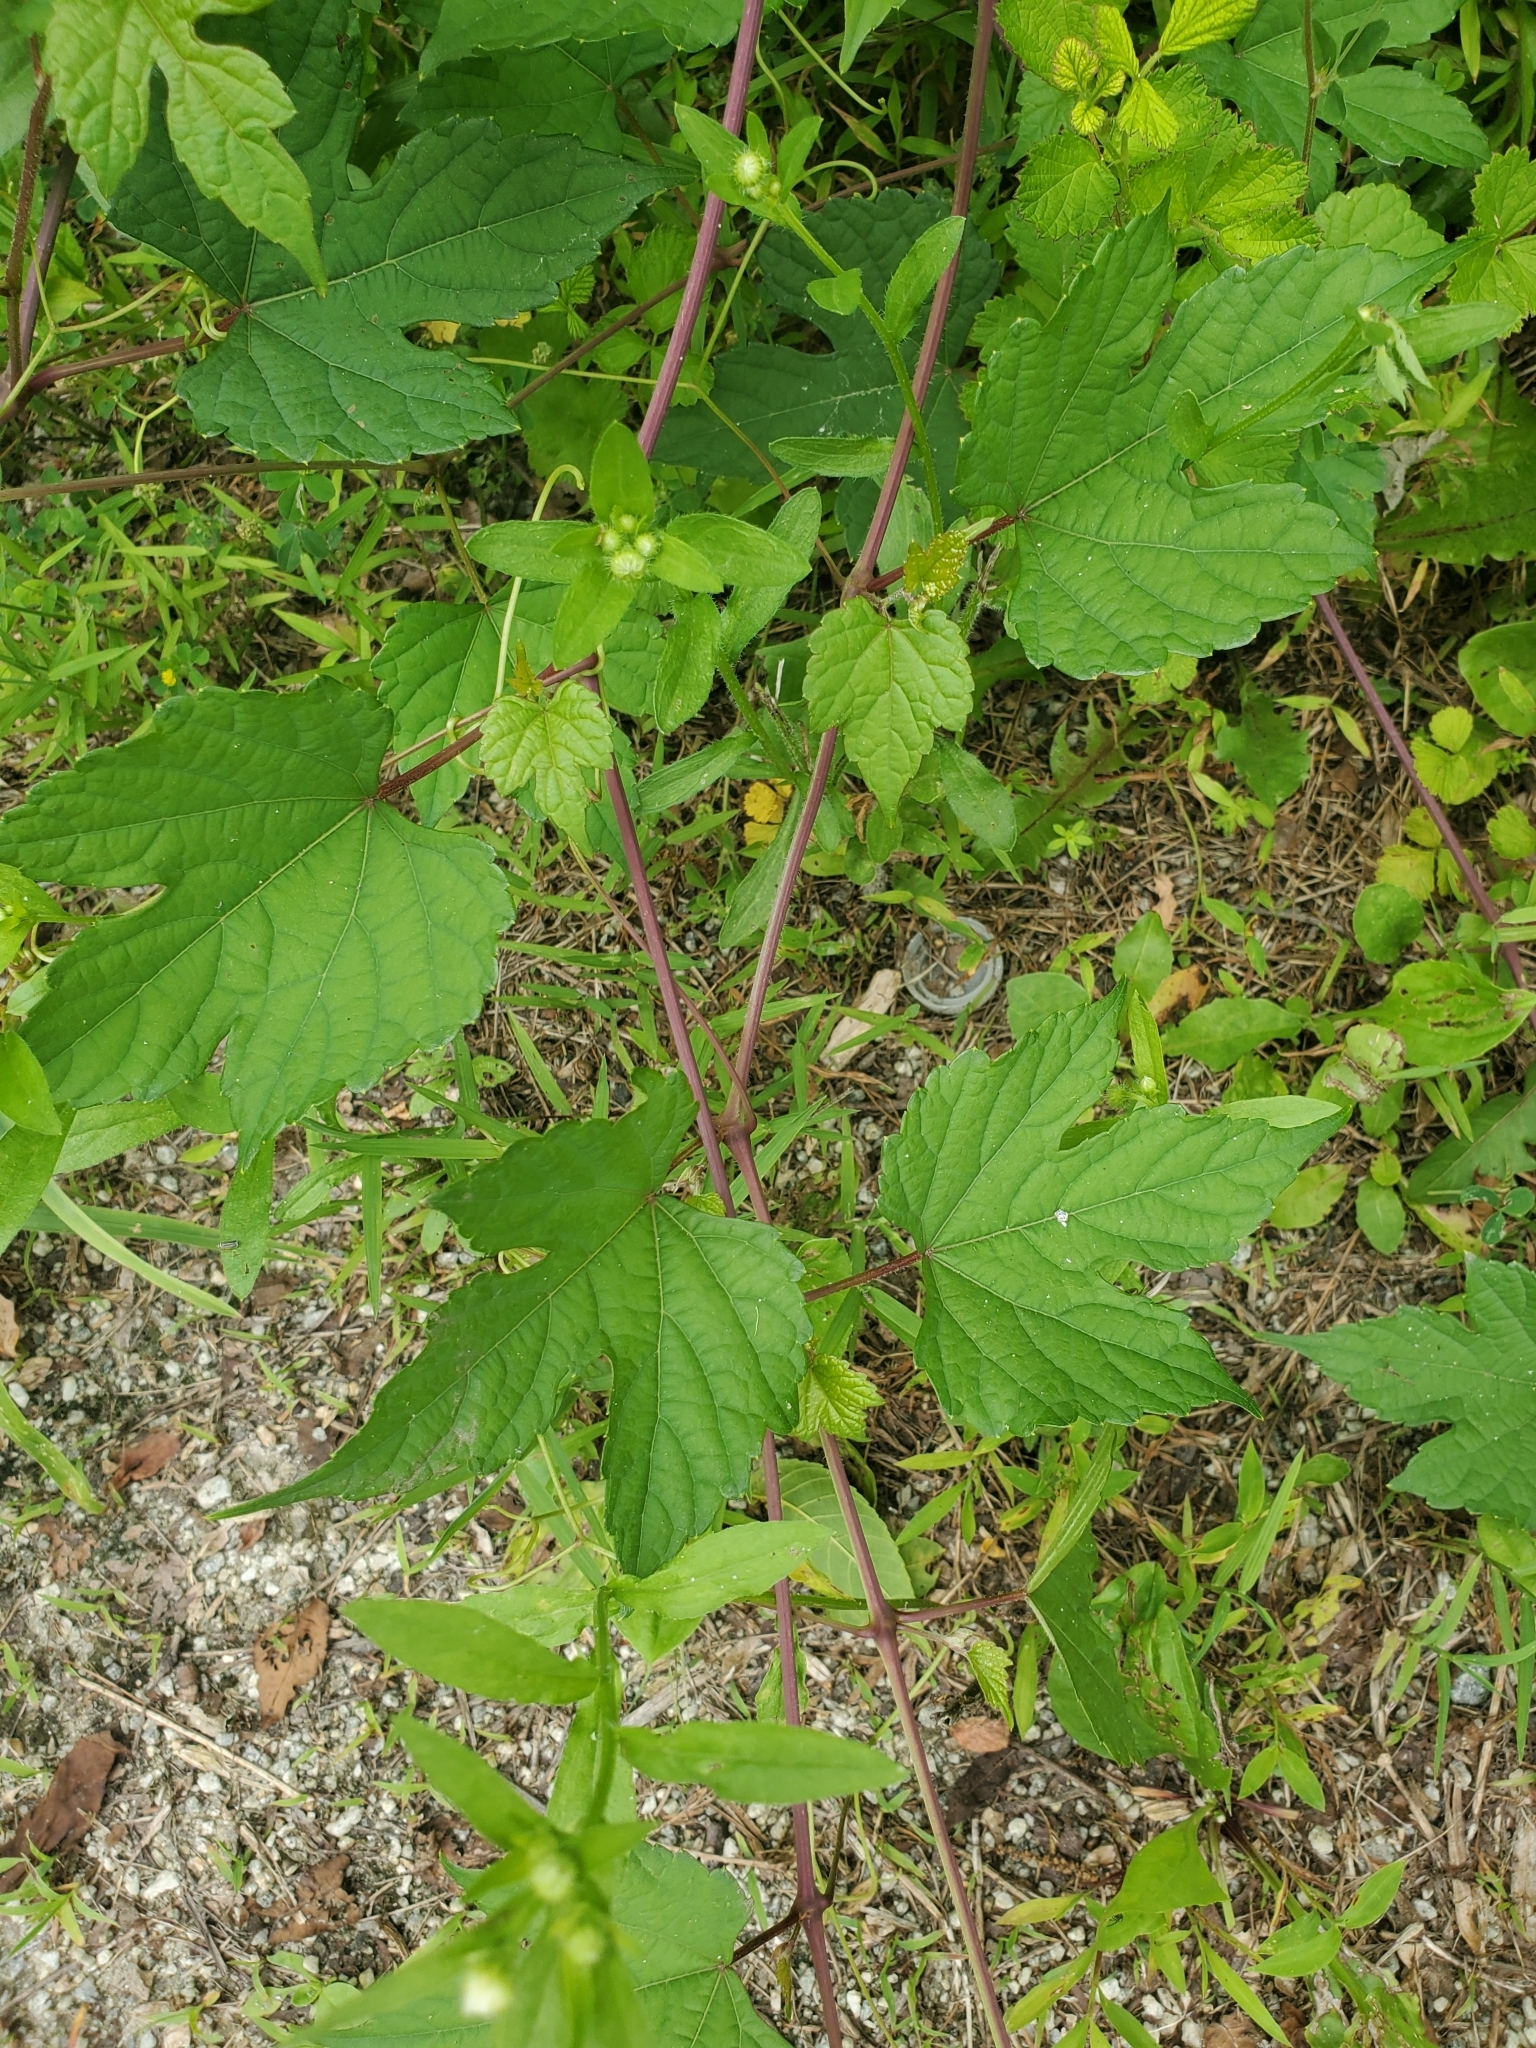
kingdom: Plantae
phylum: Tracheophyta
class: Magnoliopsida
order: Vitales
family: Vitaceae
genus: Ampelopsis
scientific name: Ampelopsis glandulosa
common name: Amur peppervine
